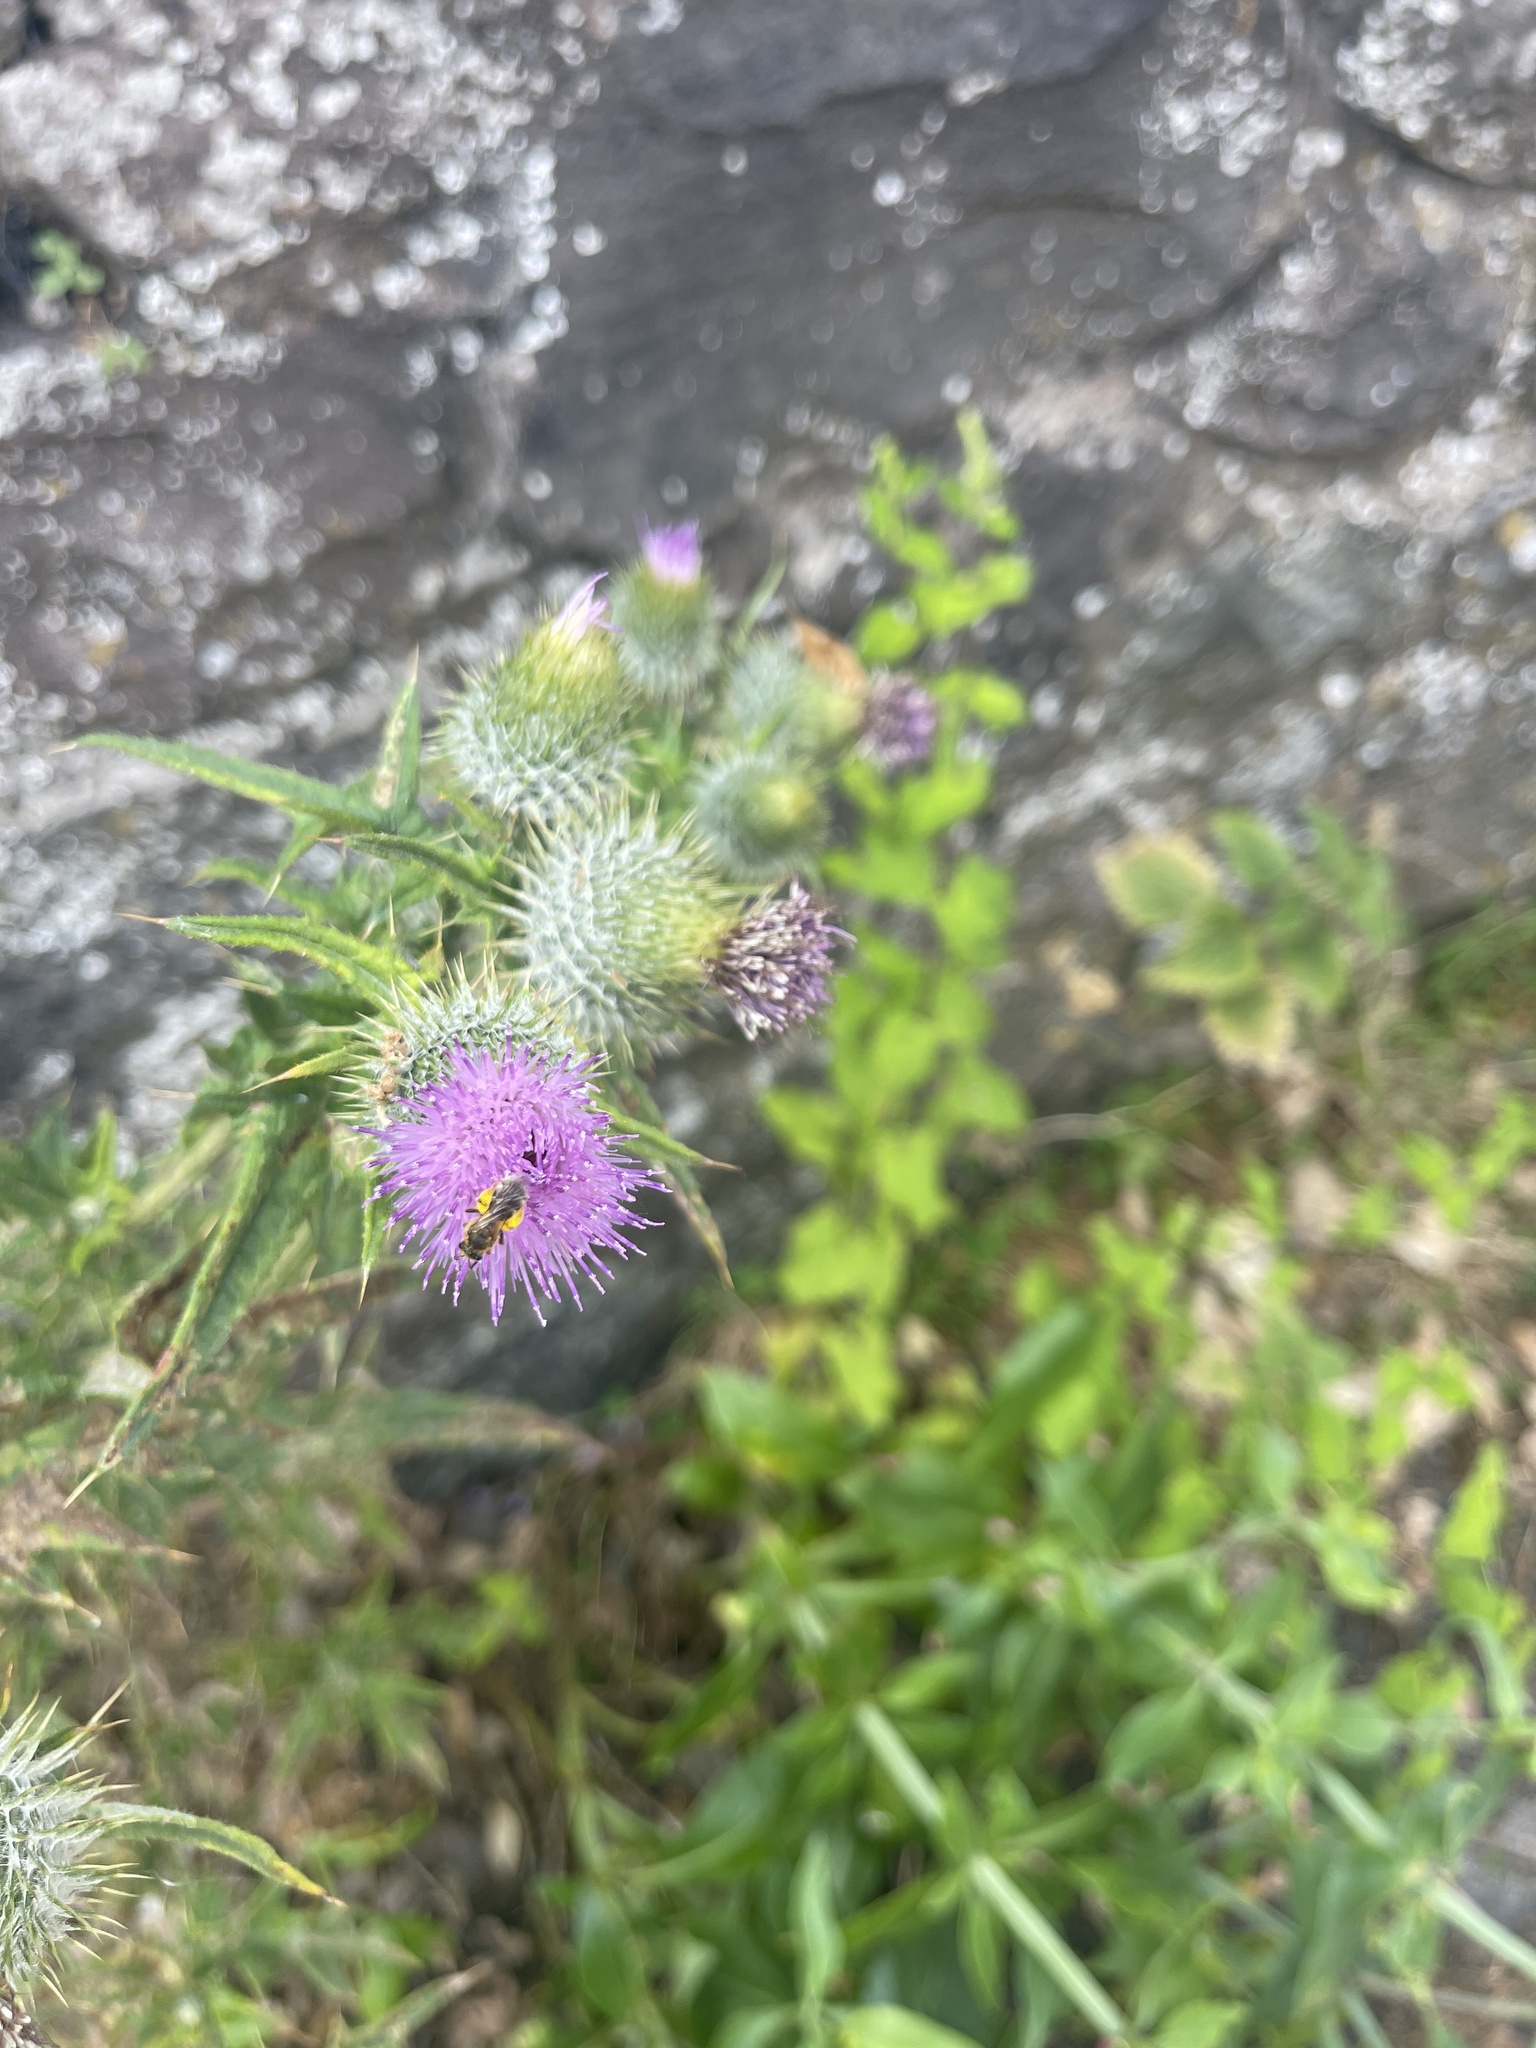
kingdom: Plantae
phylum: Tracheophyta
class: Magnoliopsida
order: Asterales
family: Asteraceae
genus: Cirsium
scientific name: Cirsium vulgare
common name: Bull thistle
